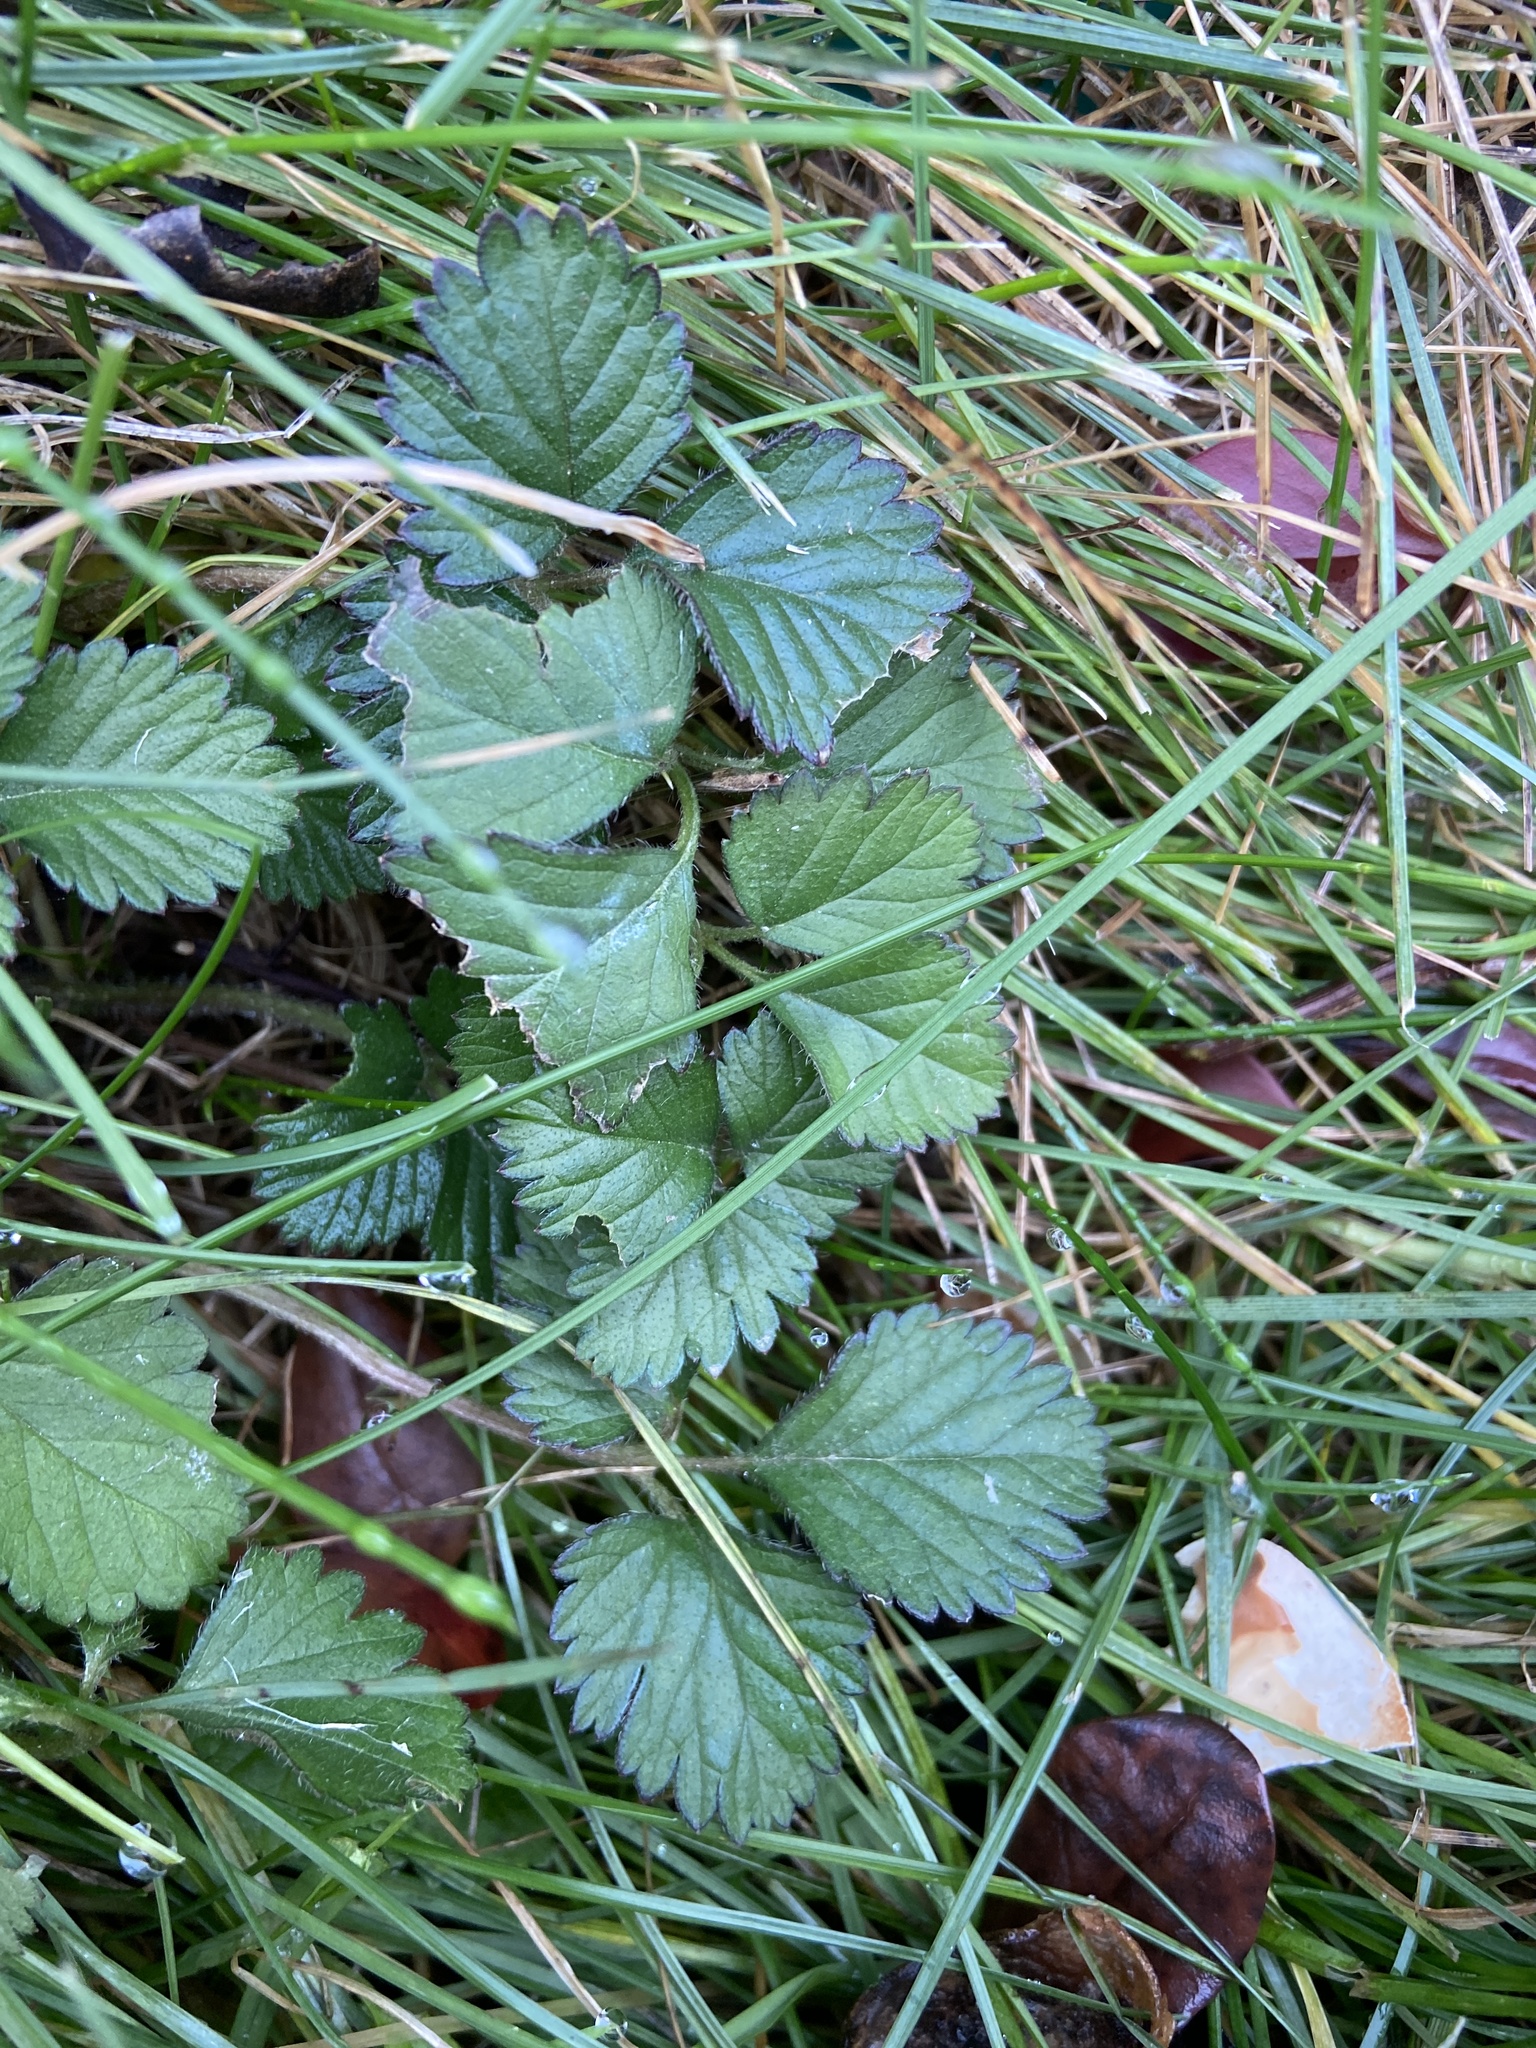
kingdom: Plantae
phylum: Tracheophyta
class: Magnoliopsida
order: Rosales
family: Rosaceae
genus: Potentilla
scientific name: Potentilla indica
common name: Yellow-flowered strawberry
